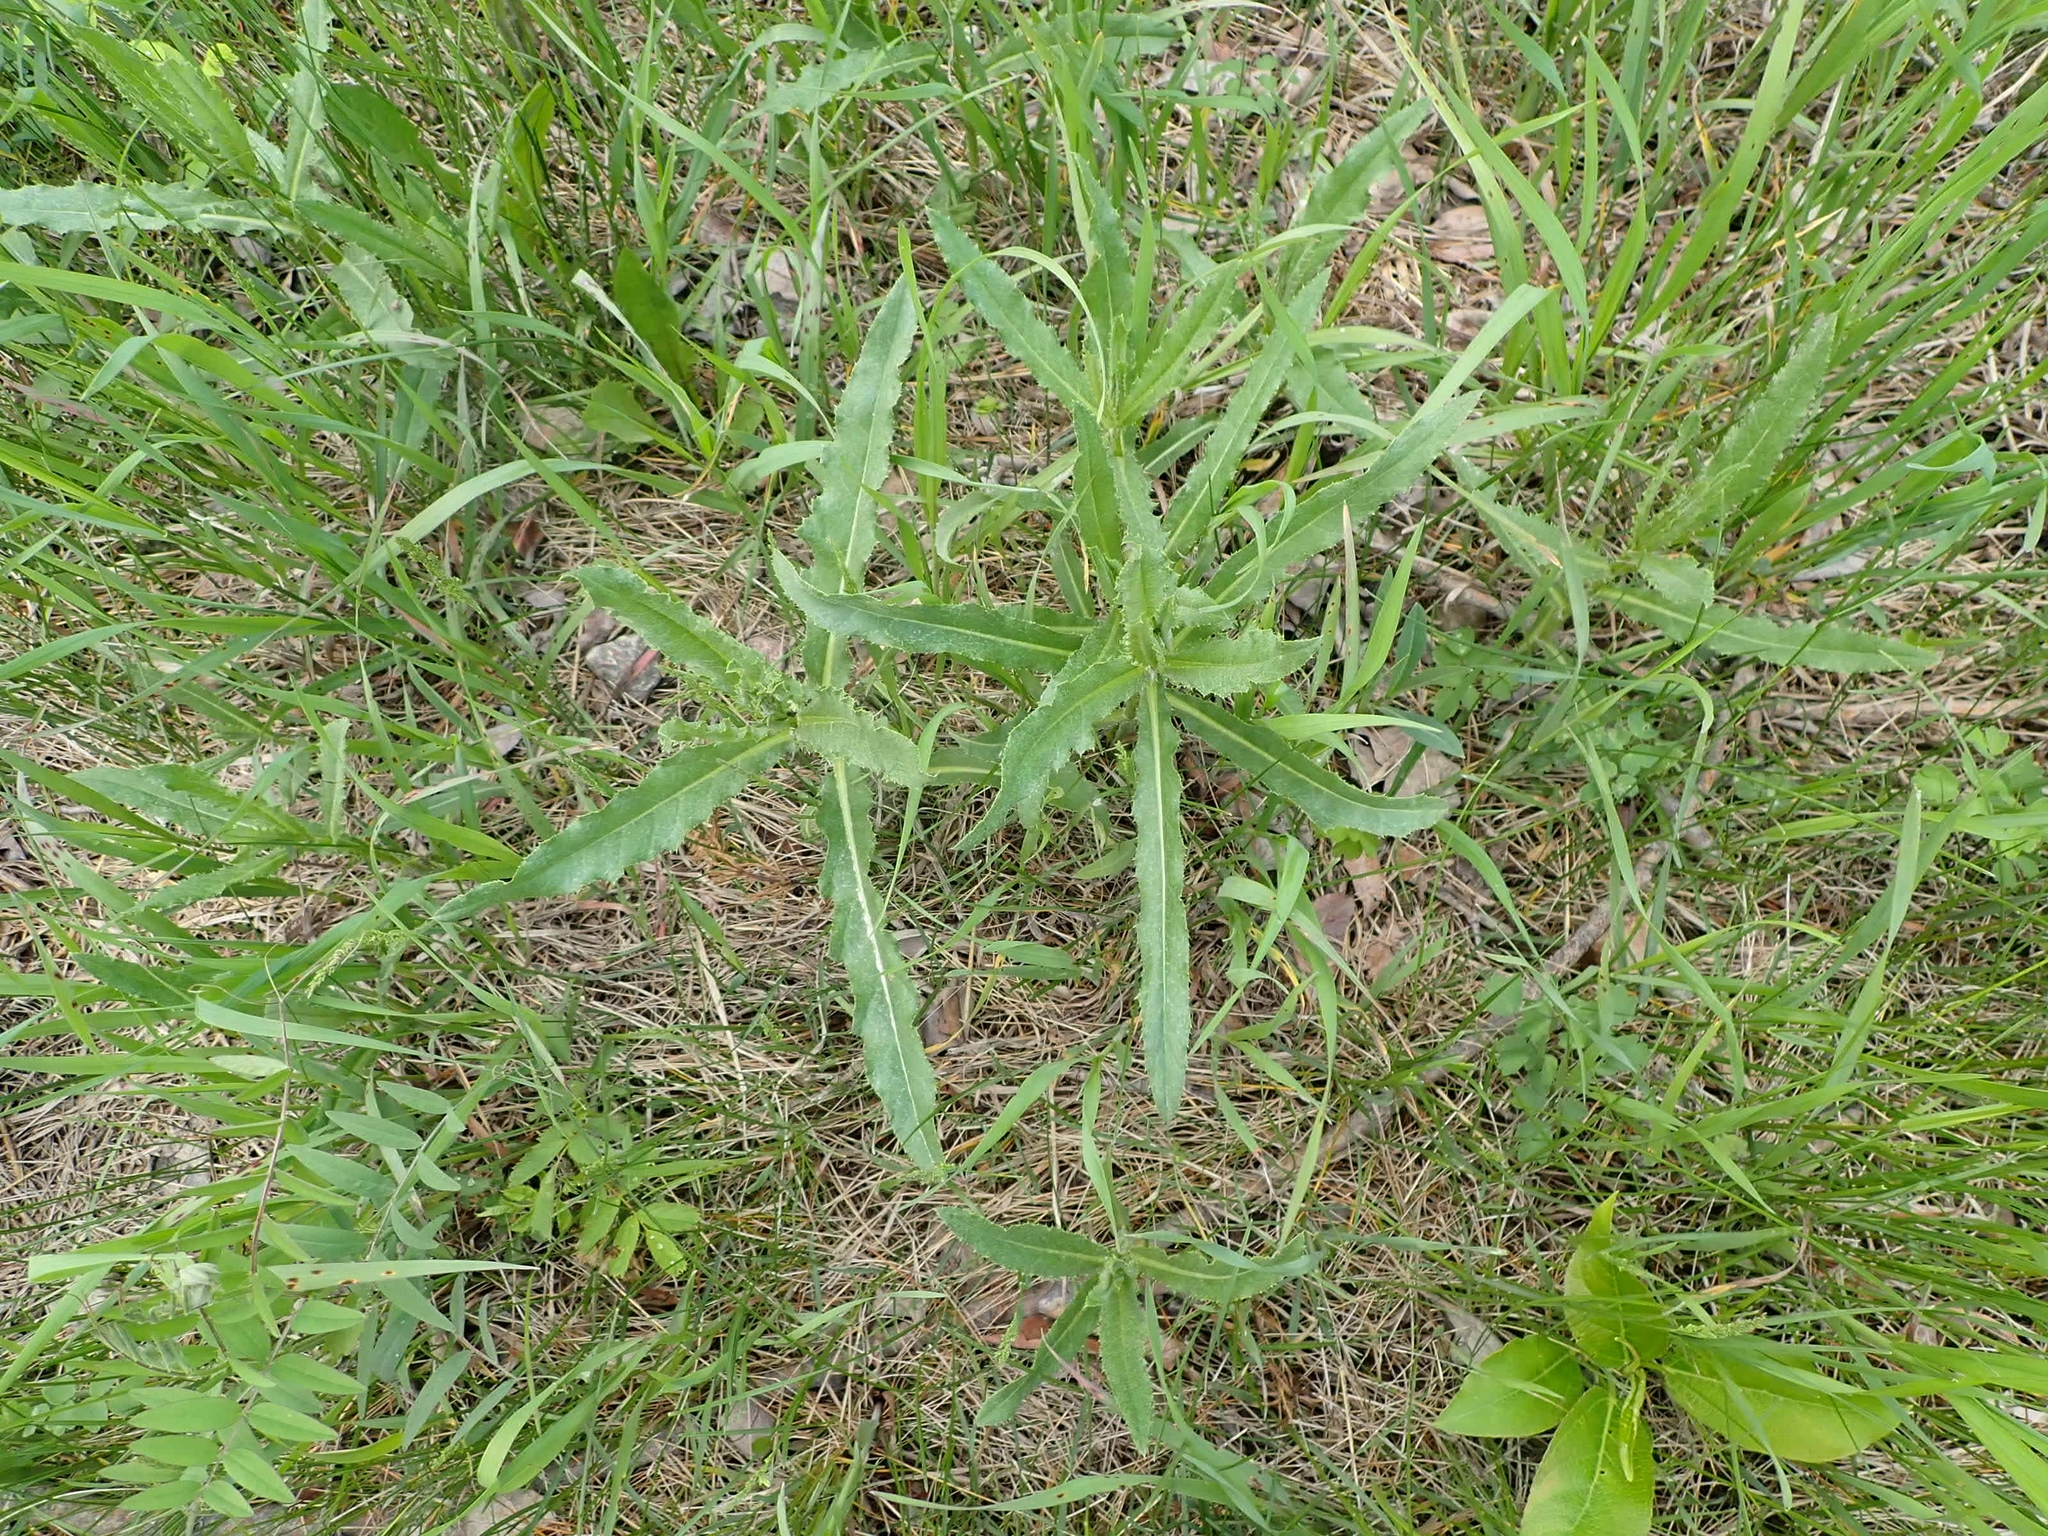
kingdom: Plantae
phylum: Tracheophyta
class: Magnoliopsida
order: Asterales
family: Asteraceae
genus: Cirsium
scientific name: Cirsium arvense
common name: Creeping thistle
